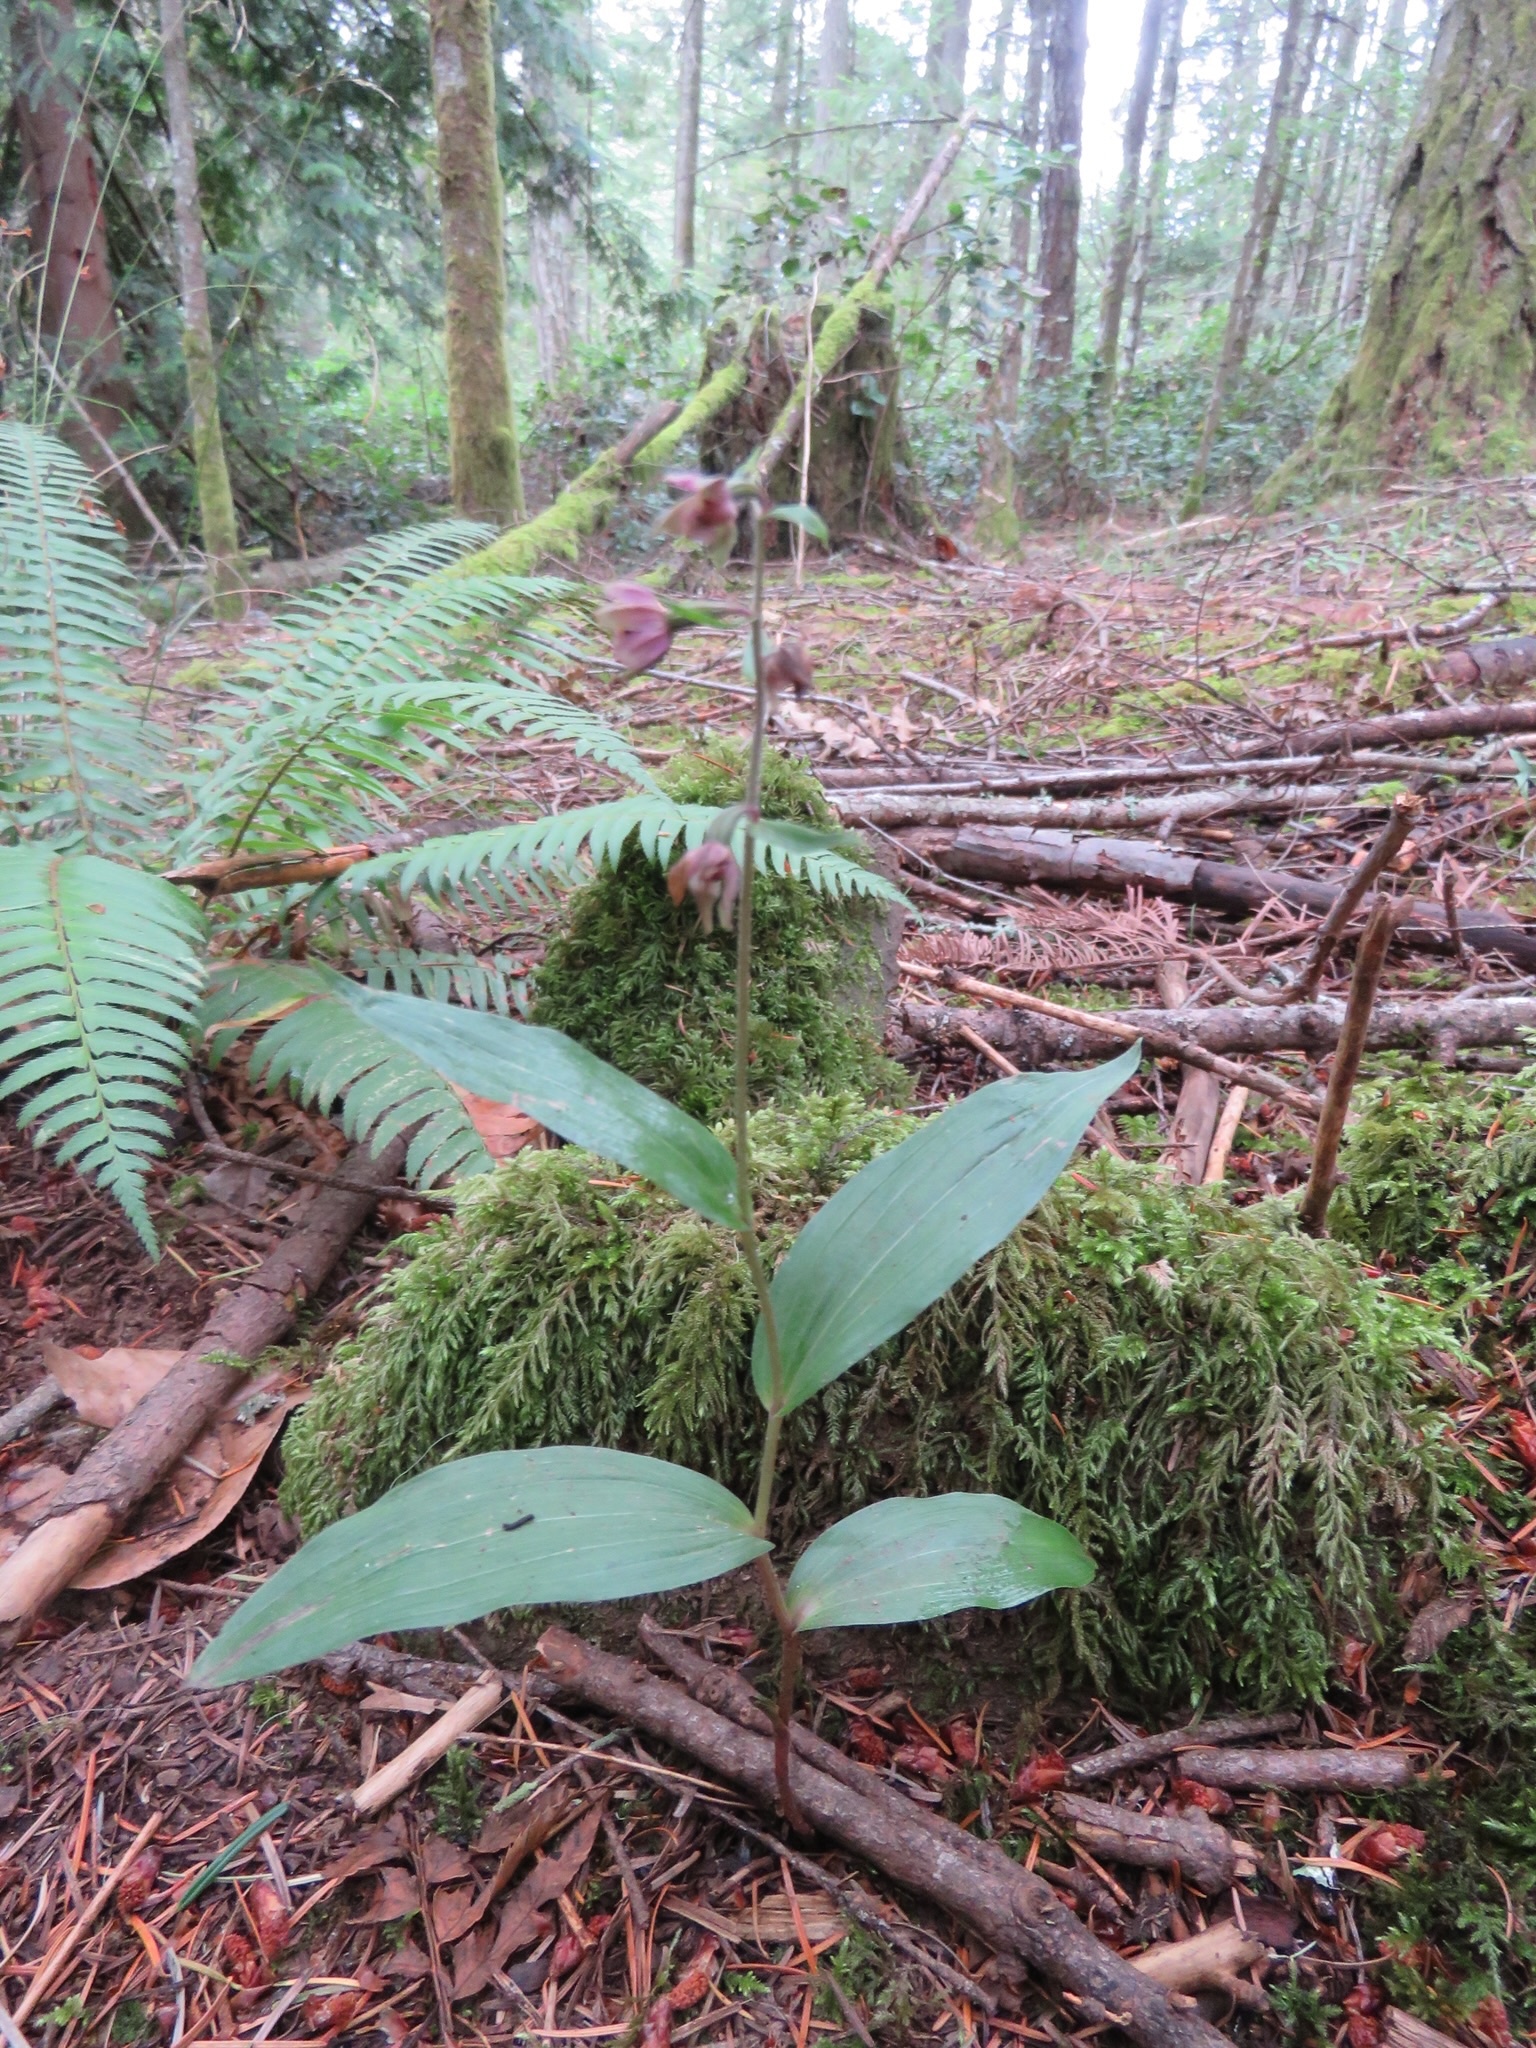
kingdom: Plantae
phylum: Tracheophyta
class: Liliopsida
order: Asparagales
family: Orchidaceae
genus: Epipactis
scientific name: Epipactis helleborine
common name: Broad-leaved helleborine
